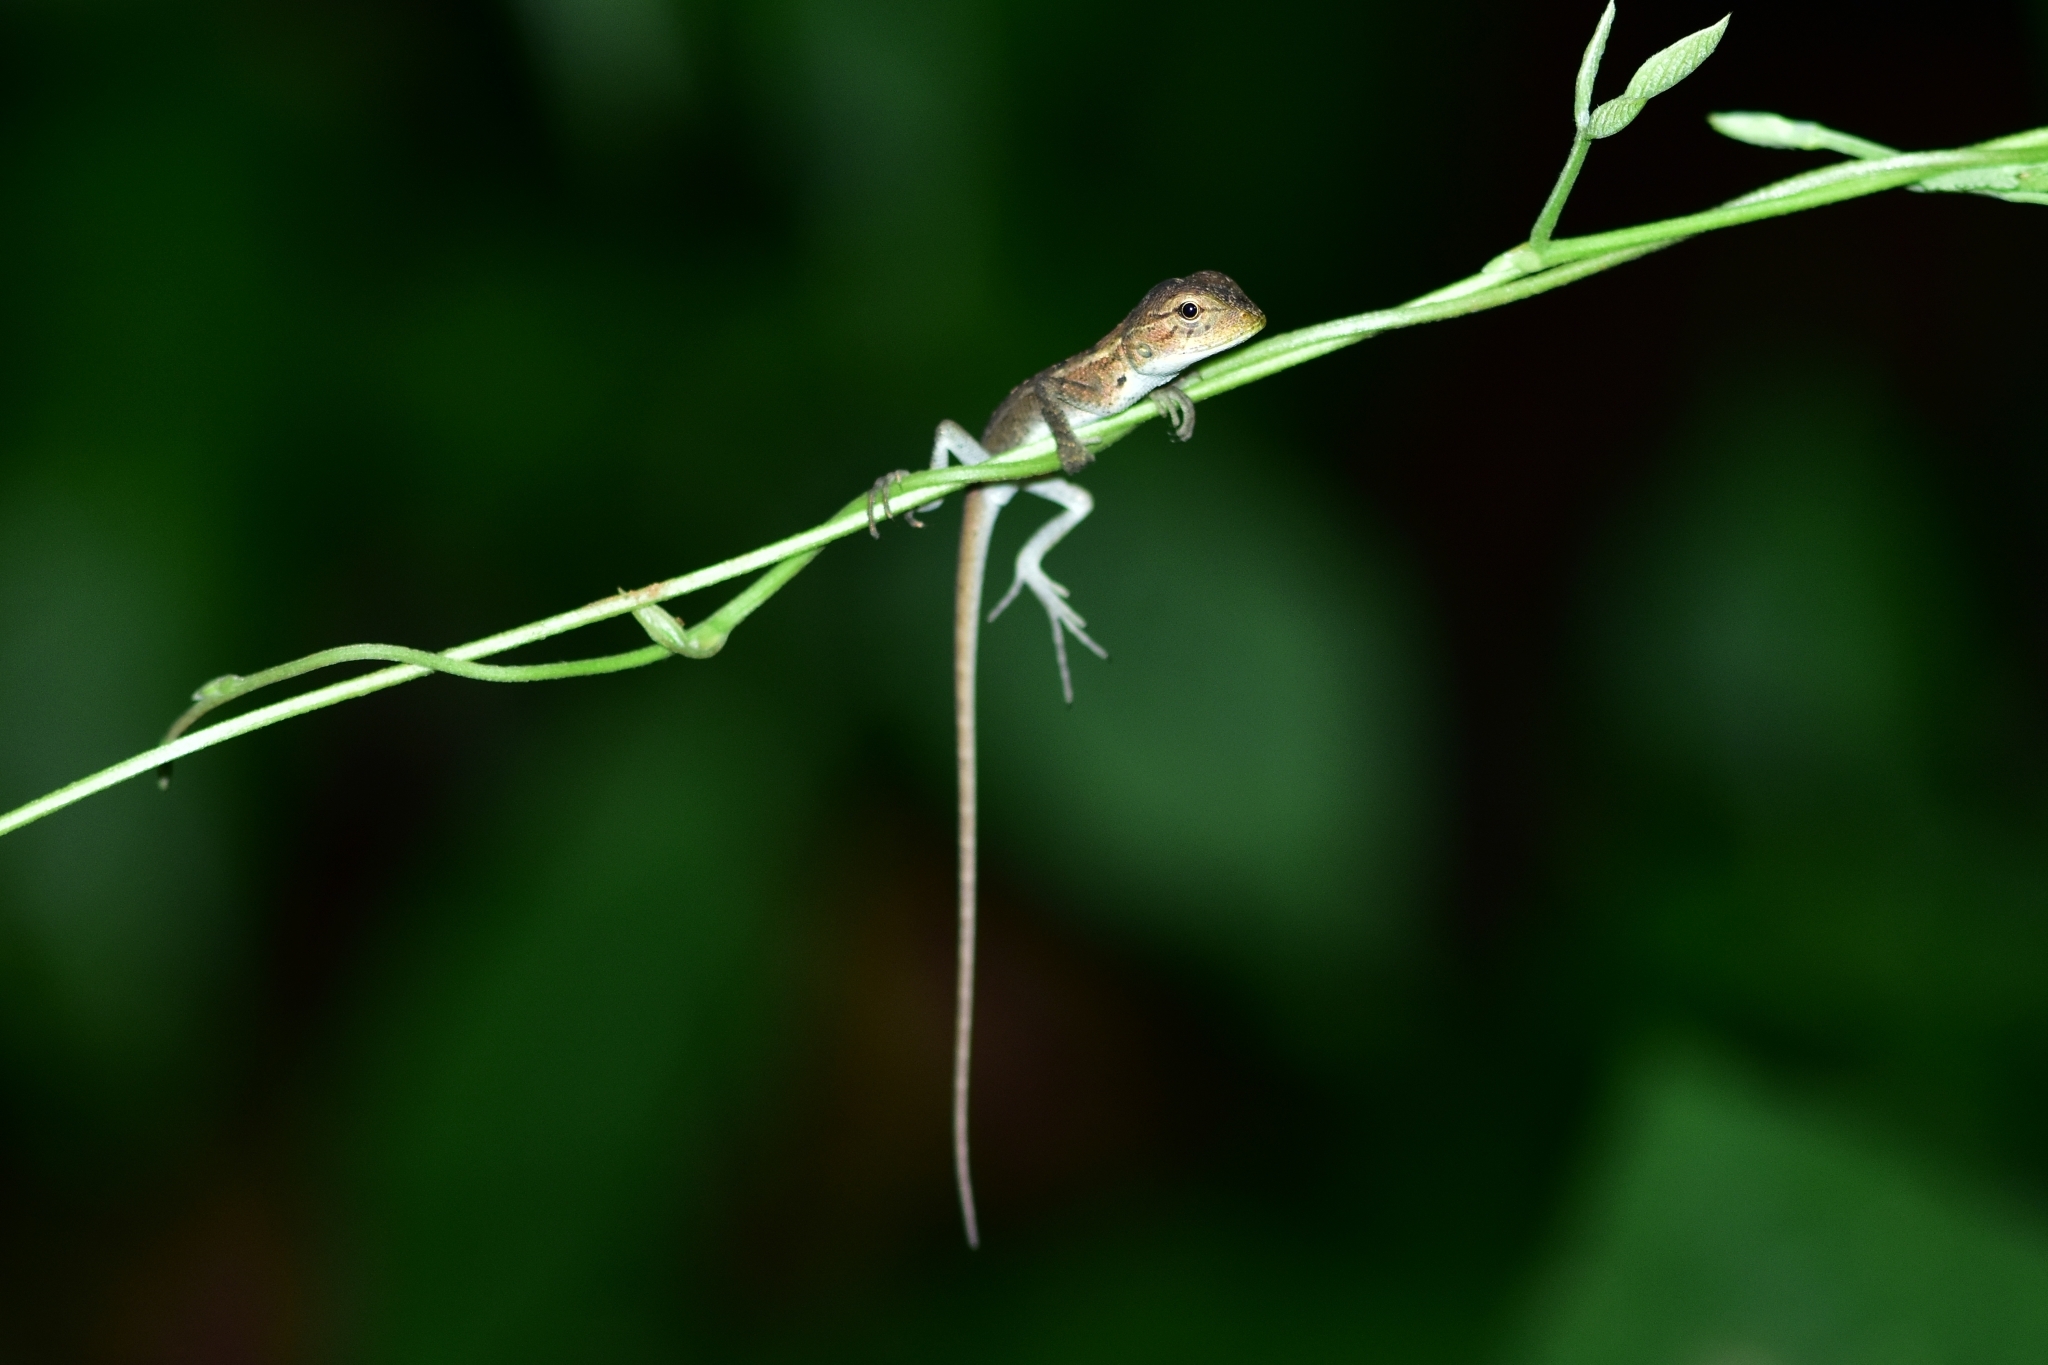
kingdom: Animalia
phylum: Chordata
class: Squamata
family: Agamidae
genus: Calotes
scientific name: Calotes versicolor
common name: Oriental garden lizard
